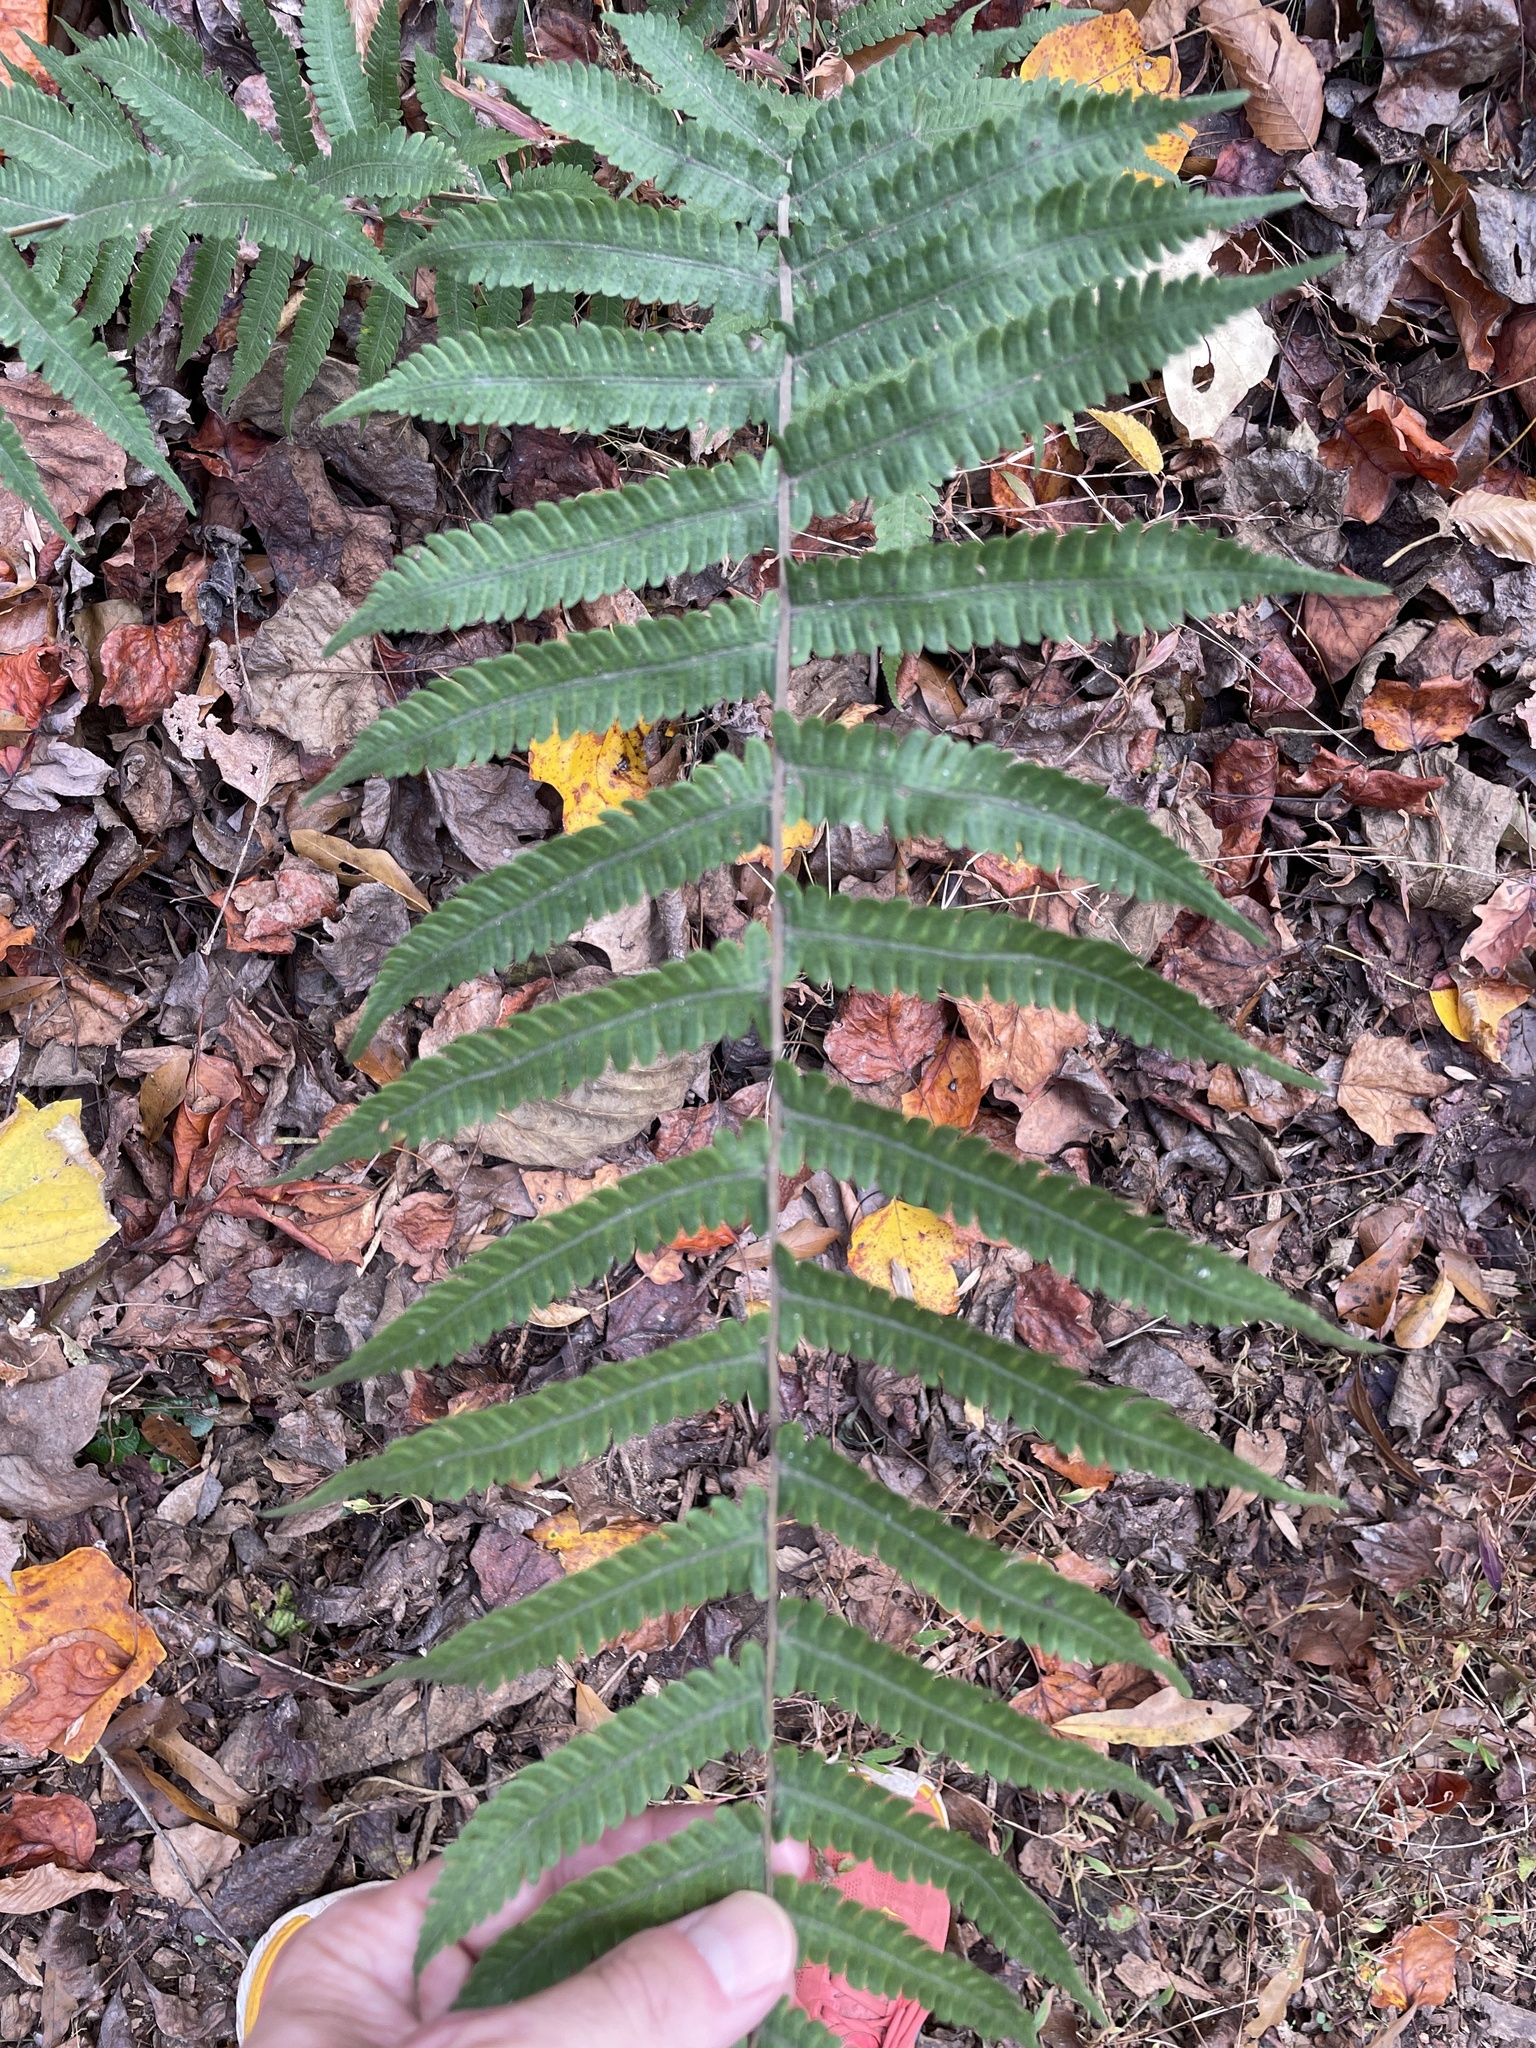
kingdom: Plantae
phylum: Tracheophyta
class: Polypodiopsida
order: Polypodiales
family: Thelypteridaceae
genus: Christella
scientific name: Christella dentata
